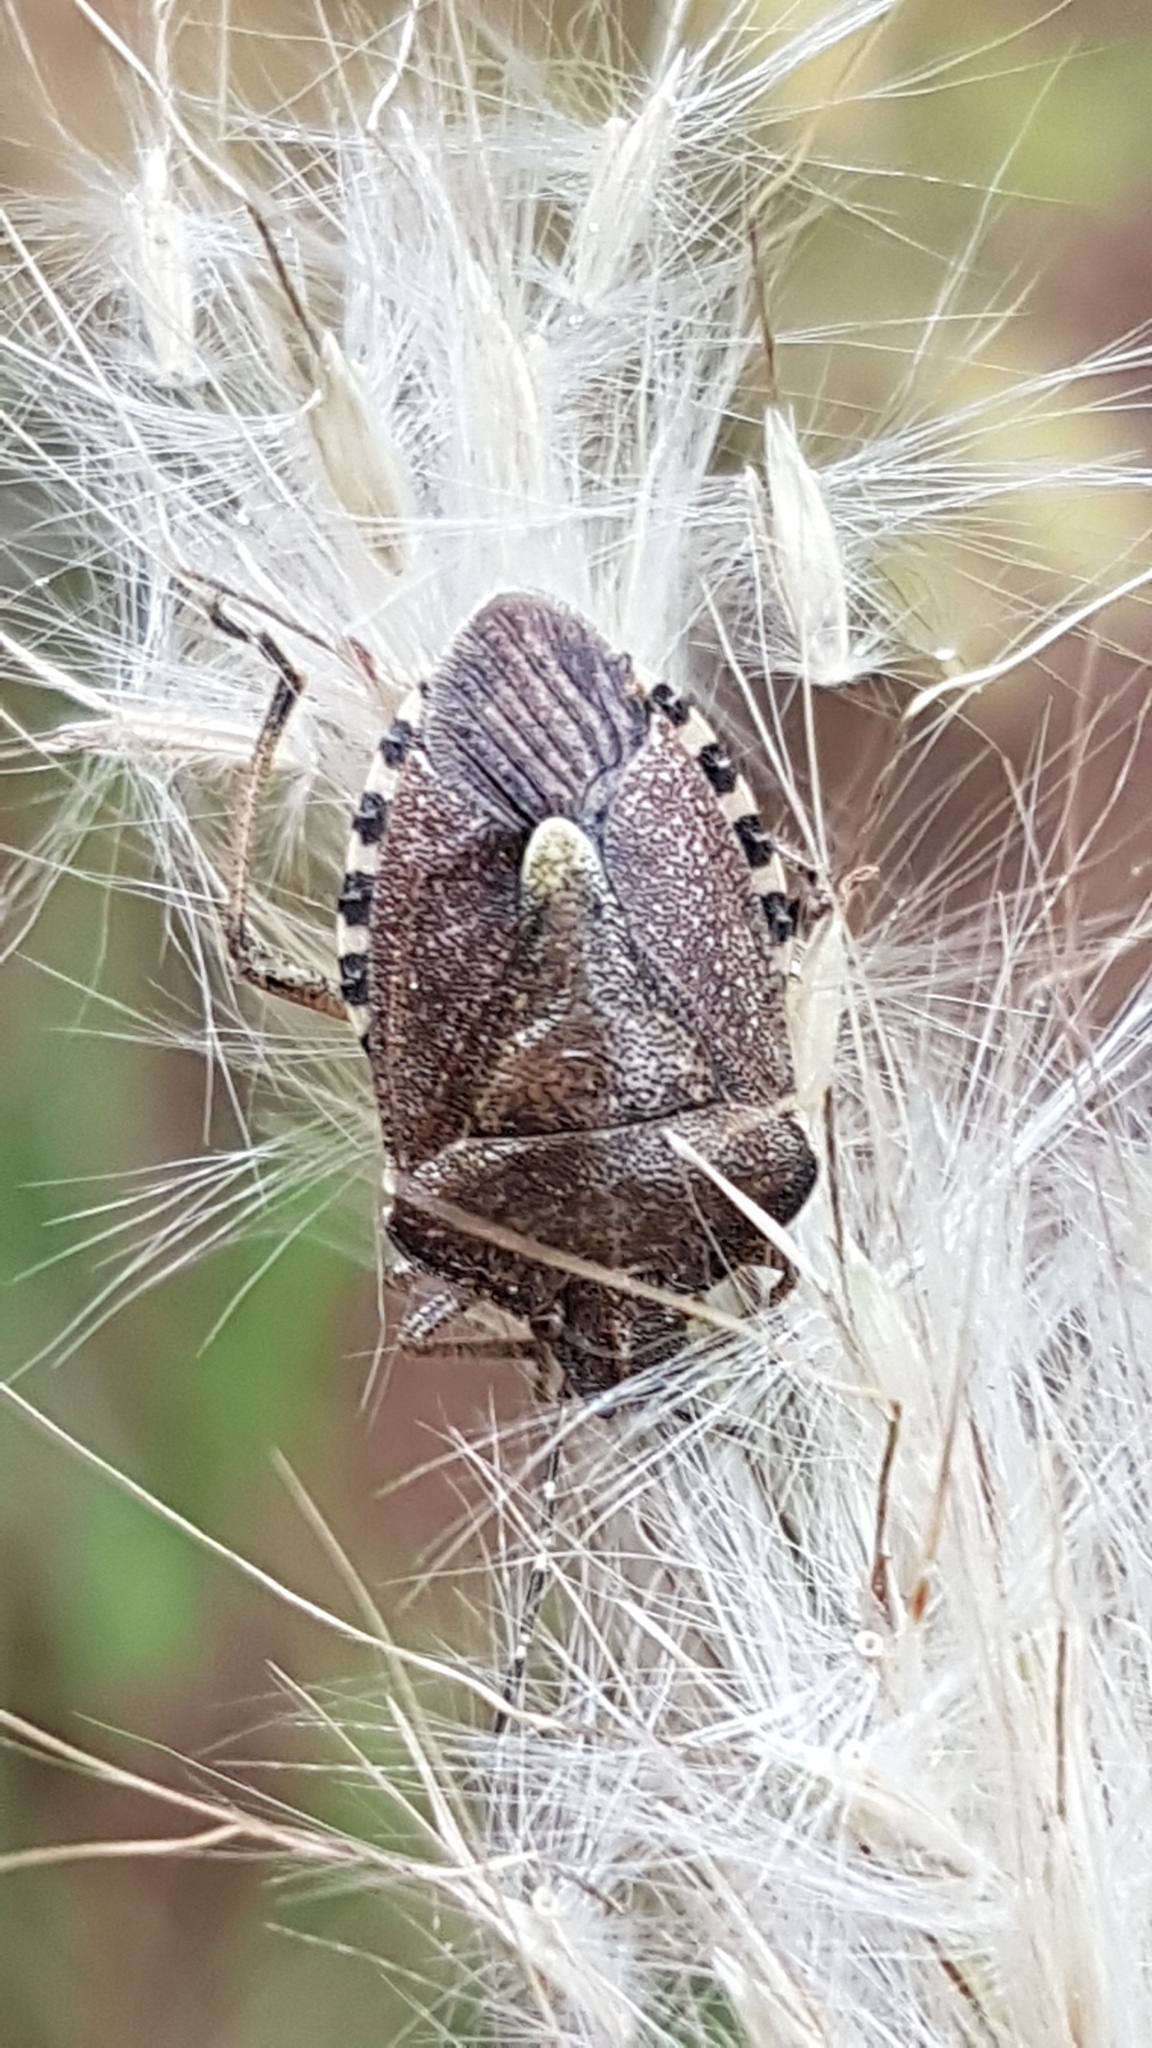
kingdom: Animalia
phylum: Arthropoda
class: Insecta
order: Hemiptera
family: Pentatomidae
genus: Dolycoris
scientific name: Dolycoris baccarum
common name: Sloe bug
